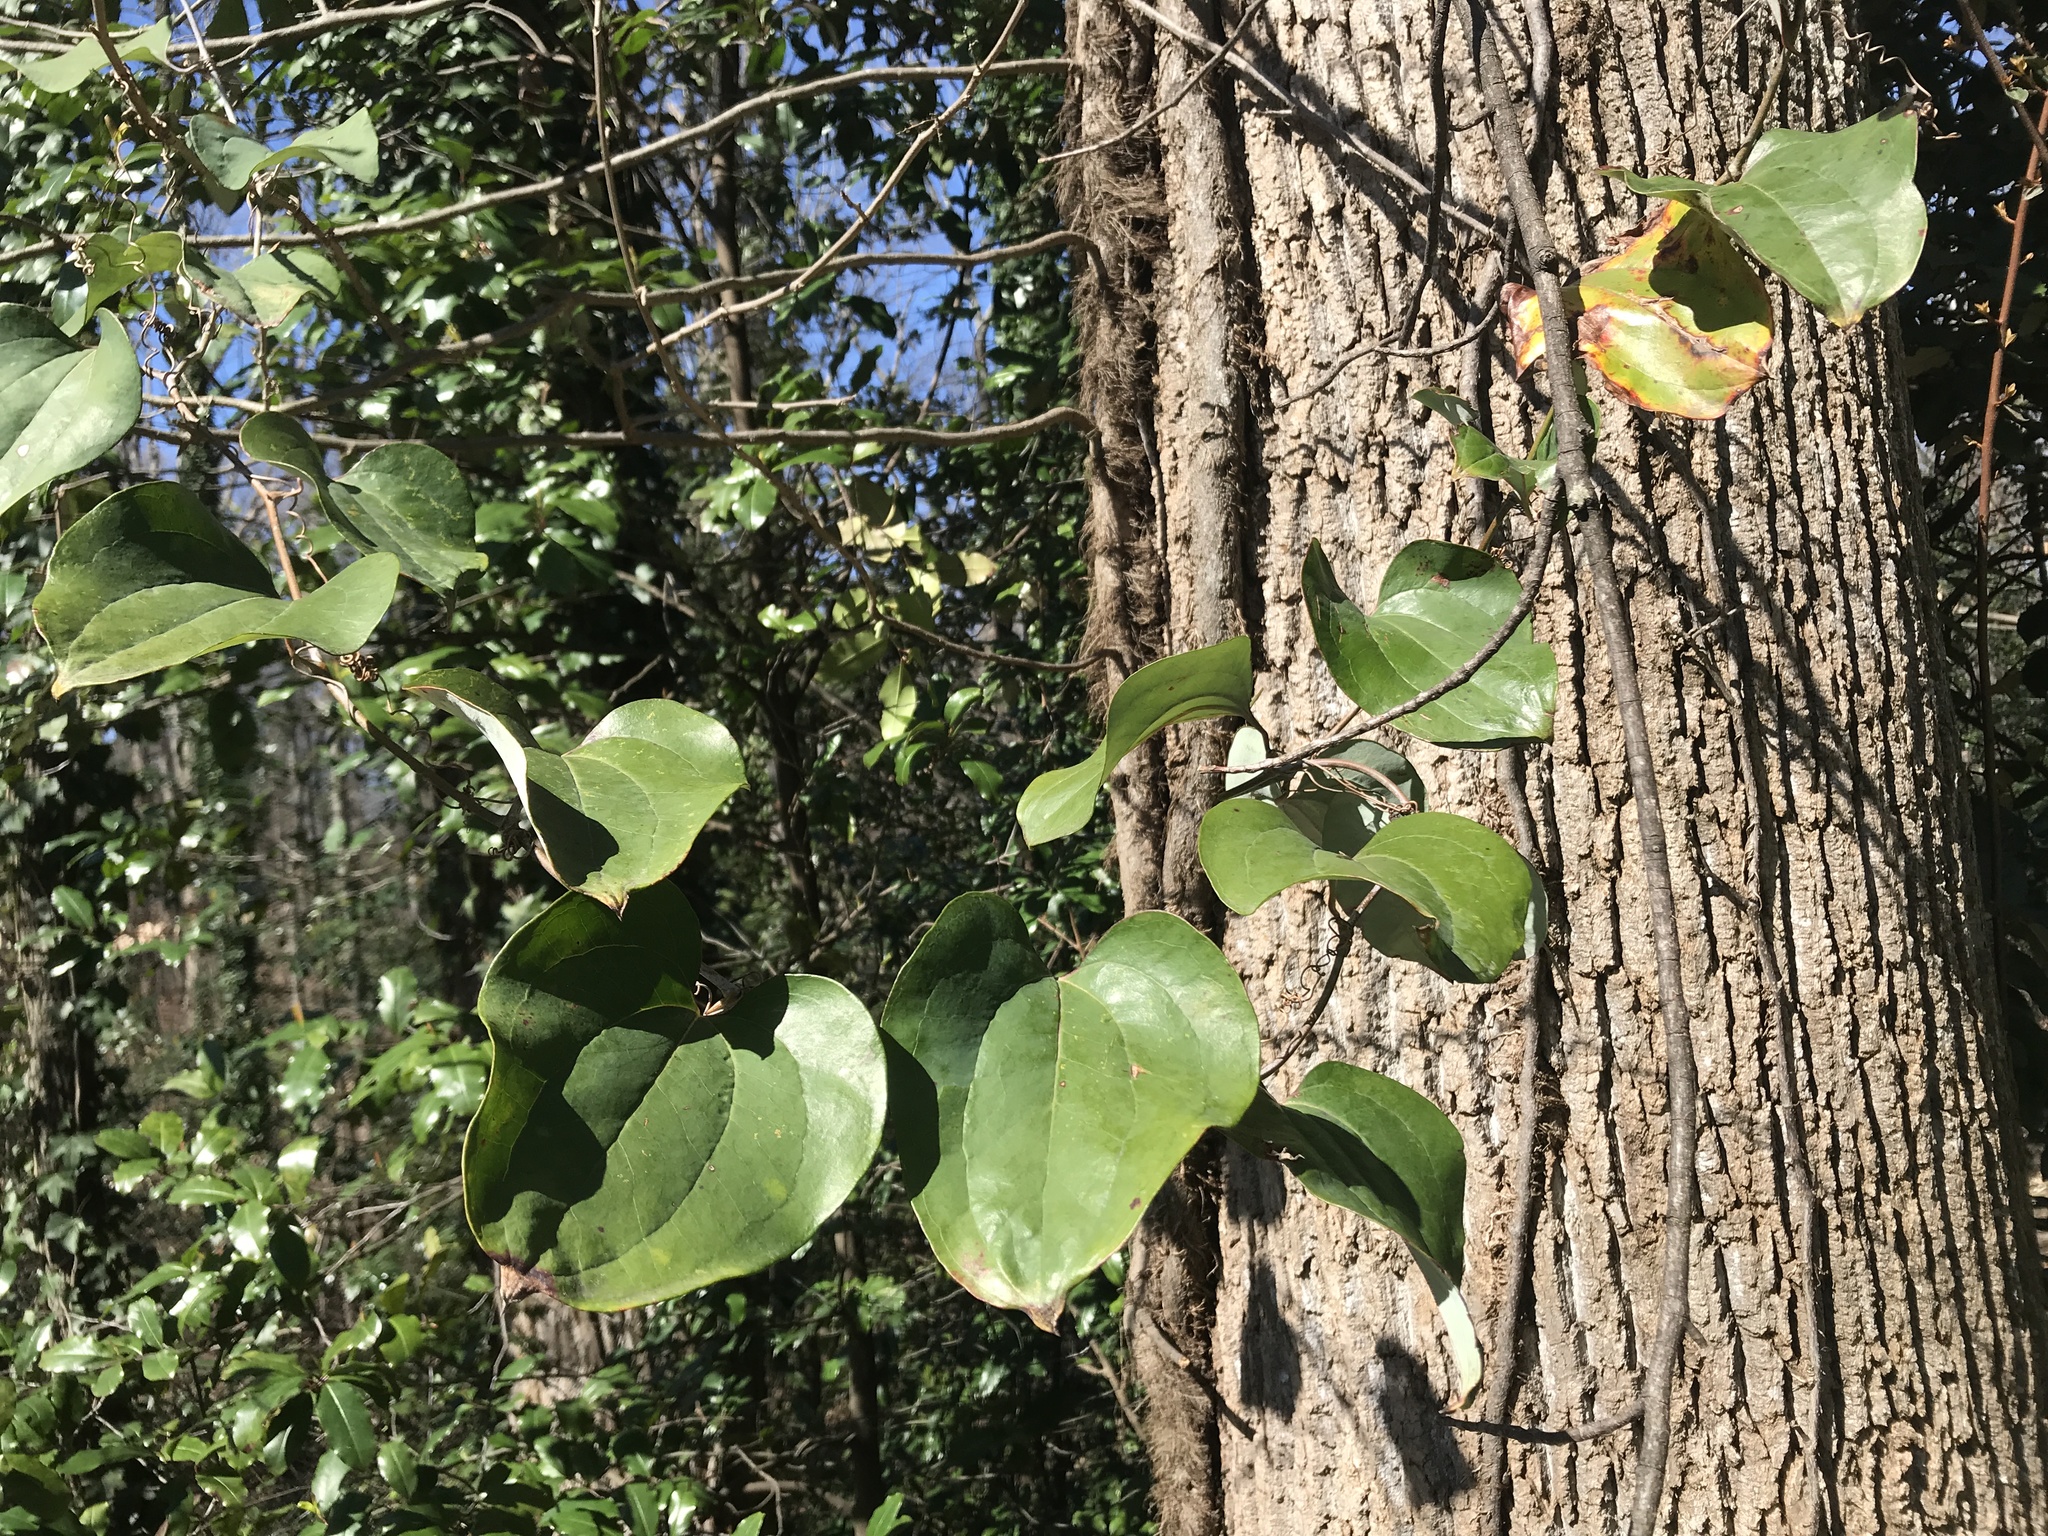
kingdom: Plantae
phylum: Tracheophyta
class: Liliopsida
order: Liliales
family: Smilacaceae
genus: Smilax
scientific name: Smilax rotundifolia
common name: Bullbriar
